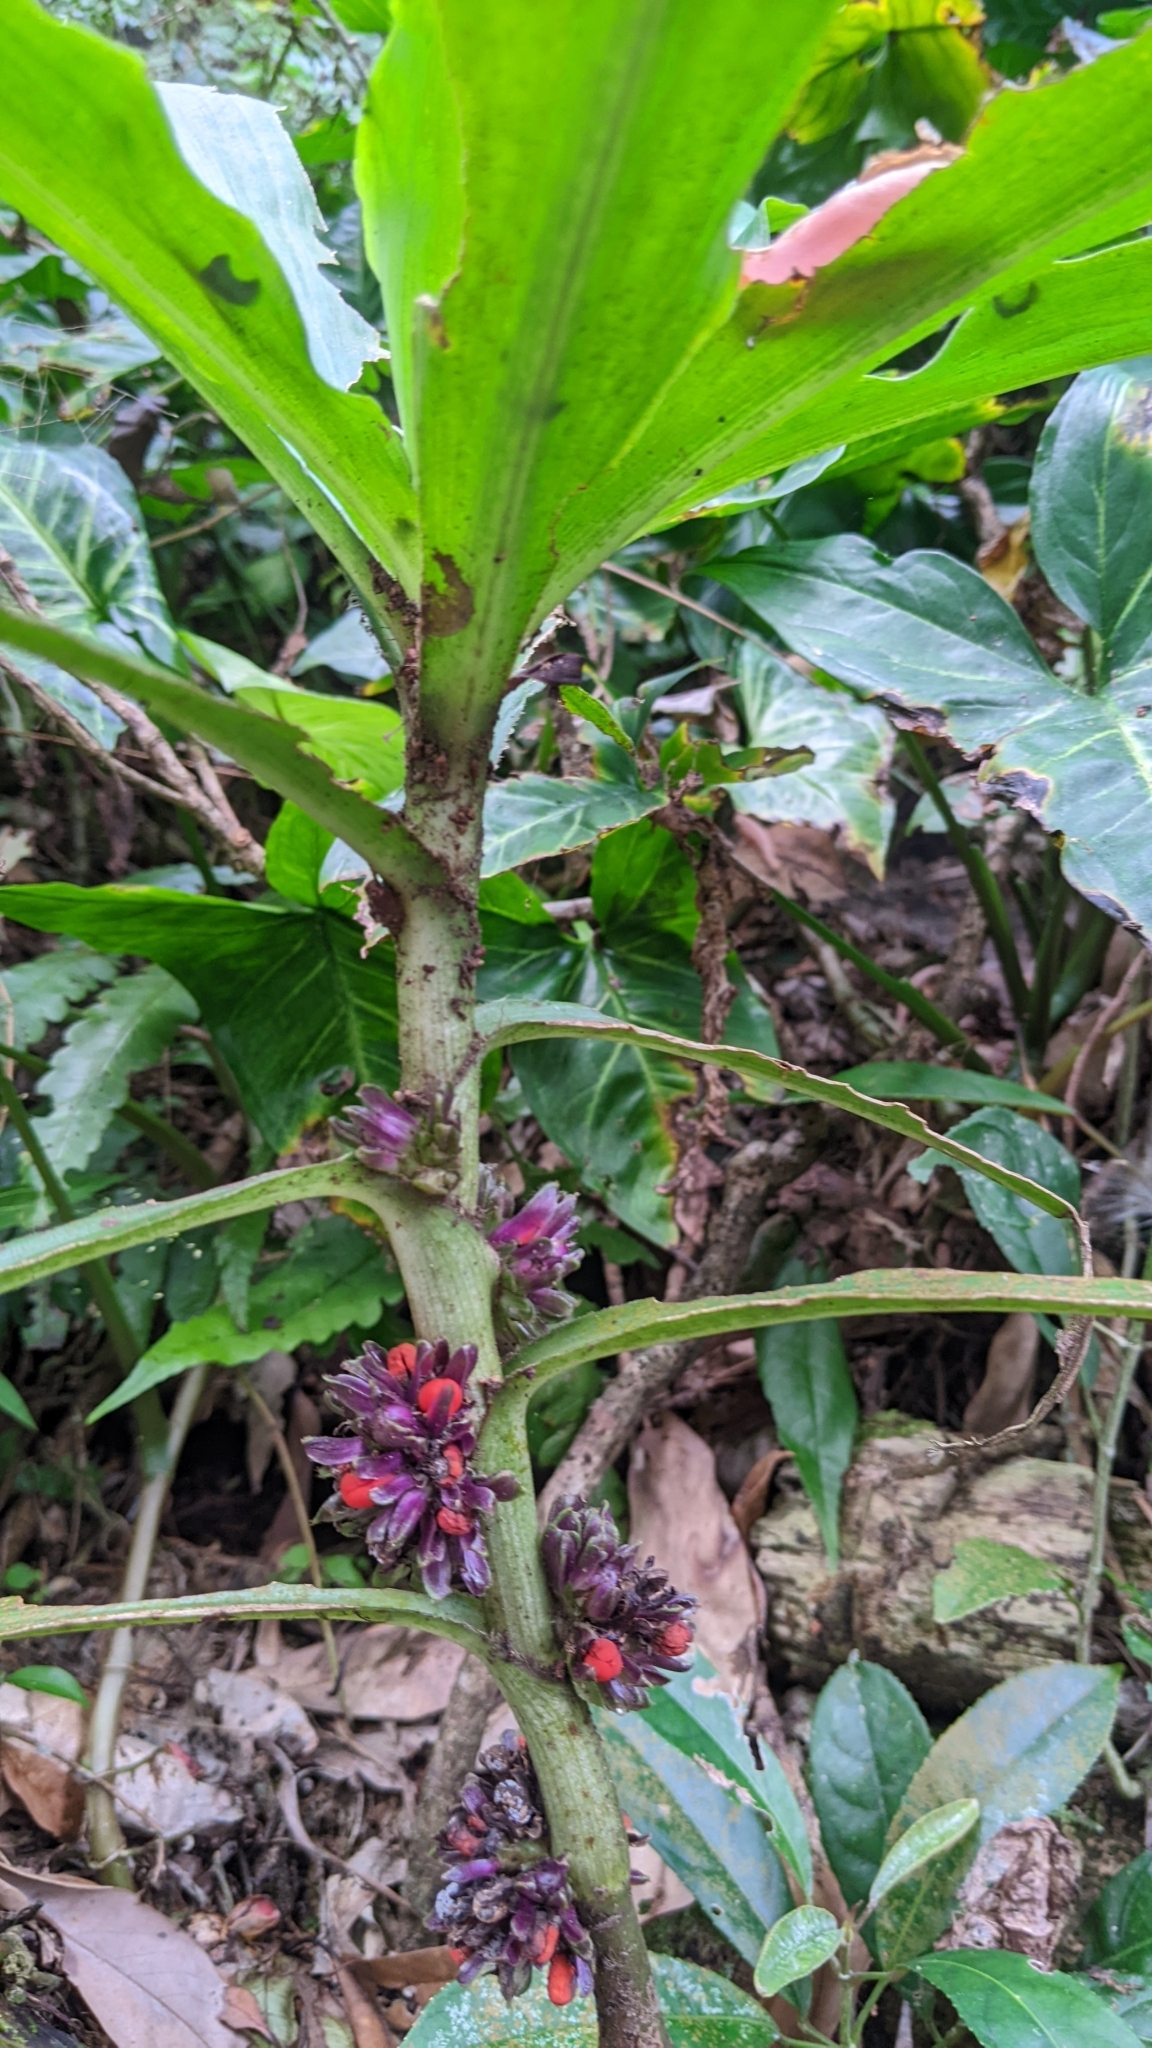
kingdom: Plantae
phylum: Tracheophyta
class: Liliopsida
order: Commelinales
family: Commelinaceae
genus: Amischotolype
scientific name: Amischotolype glabrata
